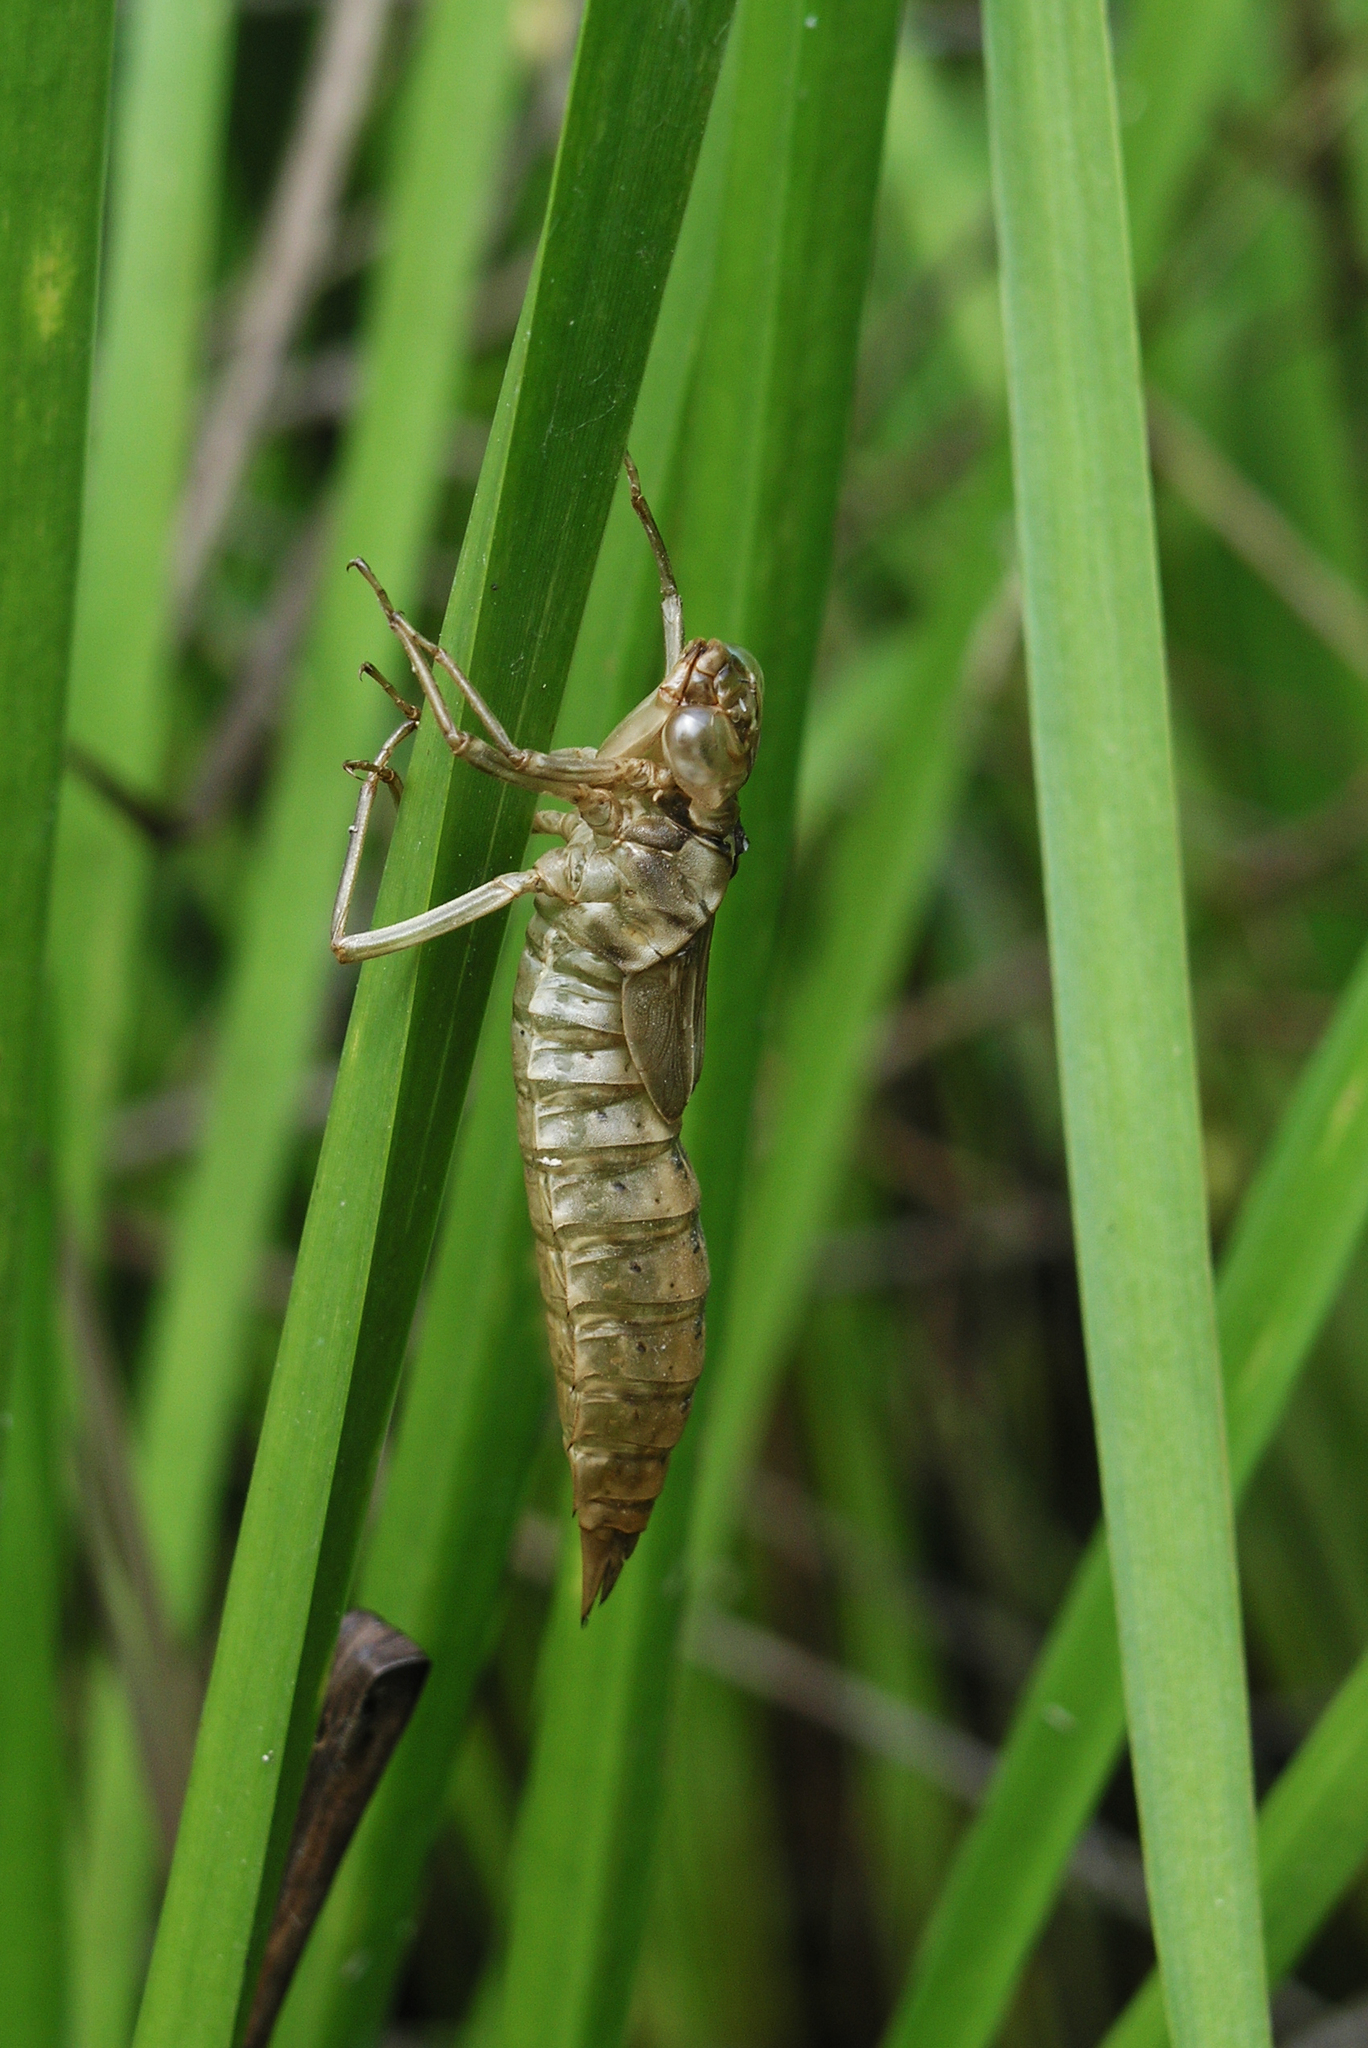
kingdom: Animalia
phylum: Arthropoda
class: Insecta
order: Odonata
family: Aeshnidae
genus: Aeshna
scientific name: Aeshna crenata
